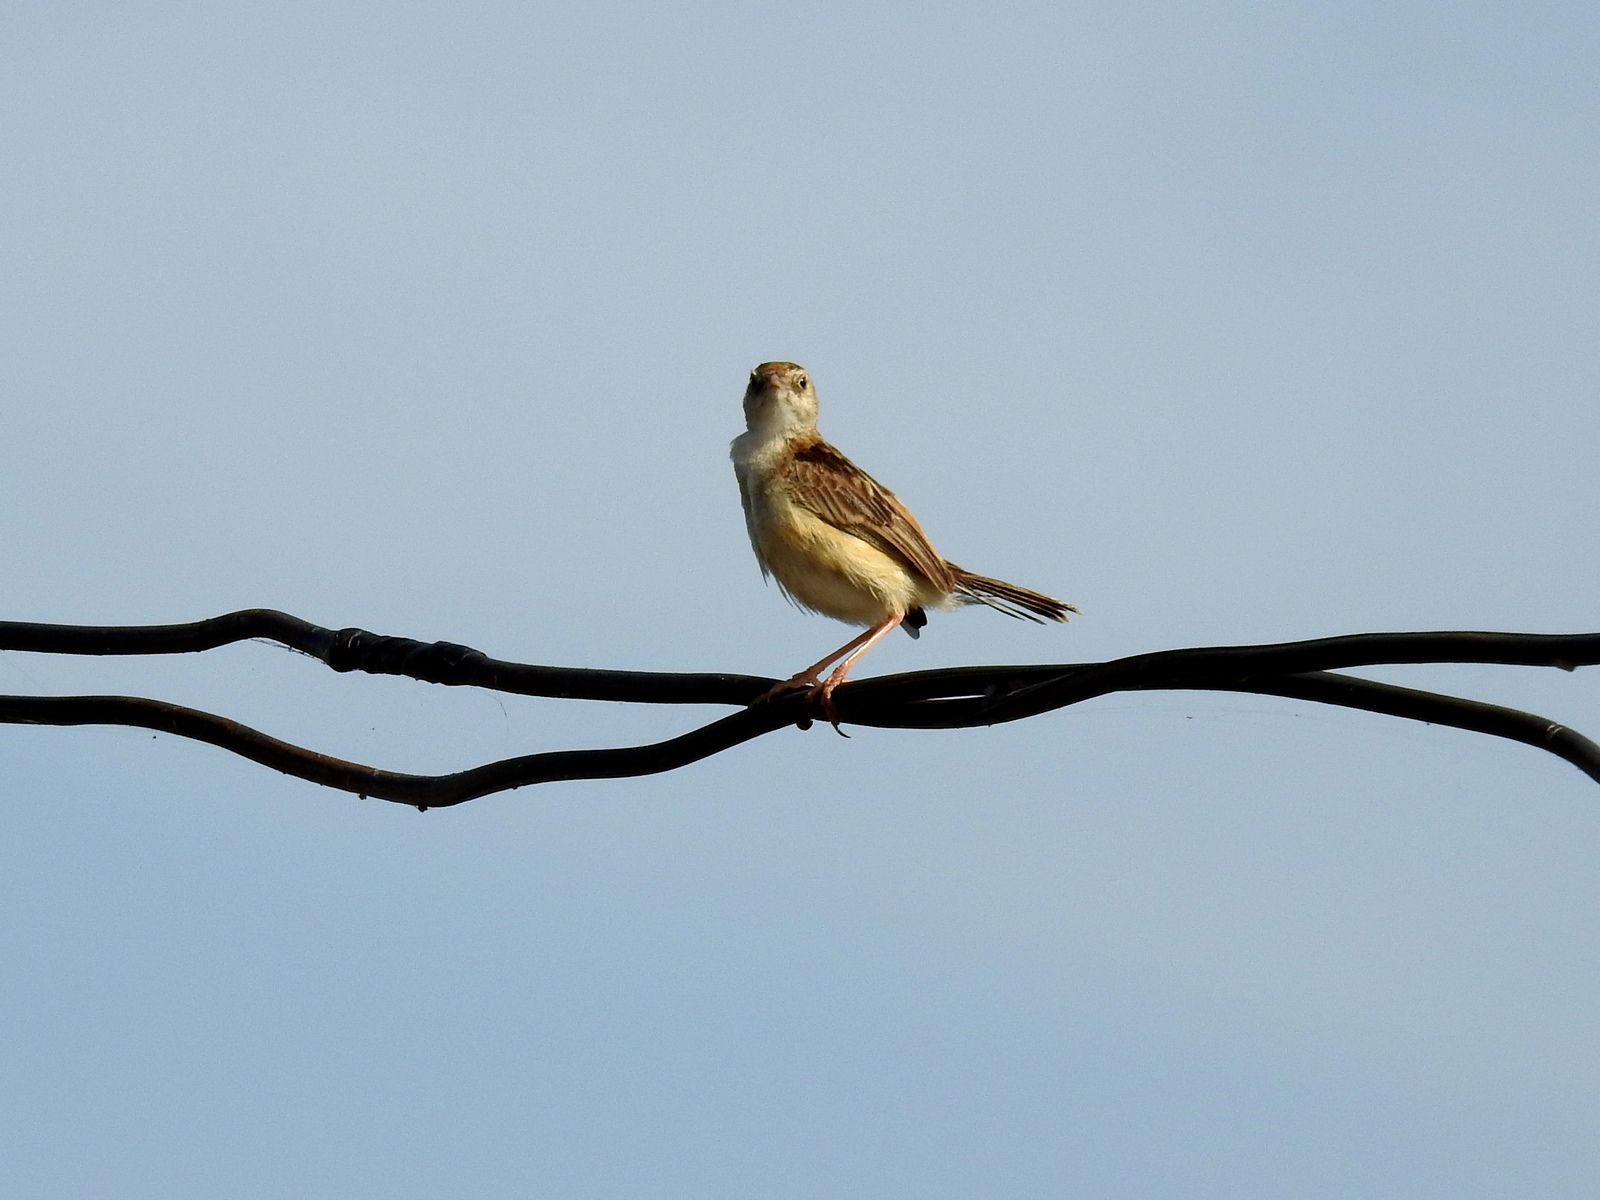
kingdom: Animalia
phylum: Chordata
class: Aves
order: Passeriformes
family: Cisticolidae
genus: Cisticola
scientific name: Cisticola juncidis
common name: Zitting cisticola
